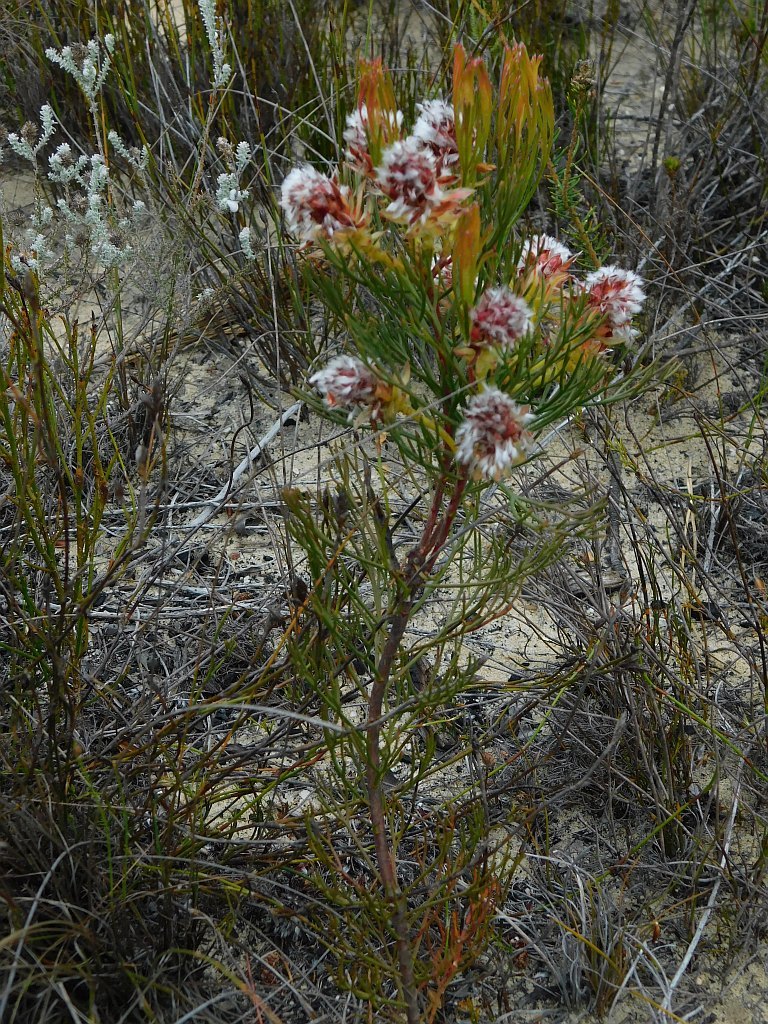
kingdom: Plantae
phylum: Tracheophyta
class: Magnoliopsida
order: Proteales
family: Proteaceae
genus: Serruria
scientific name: Serruria phylicoides
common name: Bearded spiderhead
